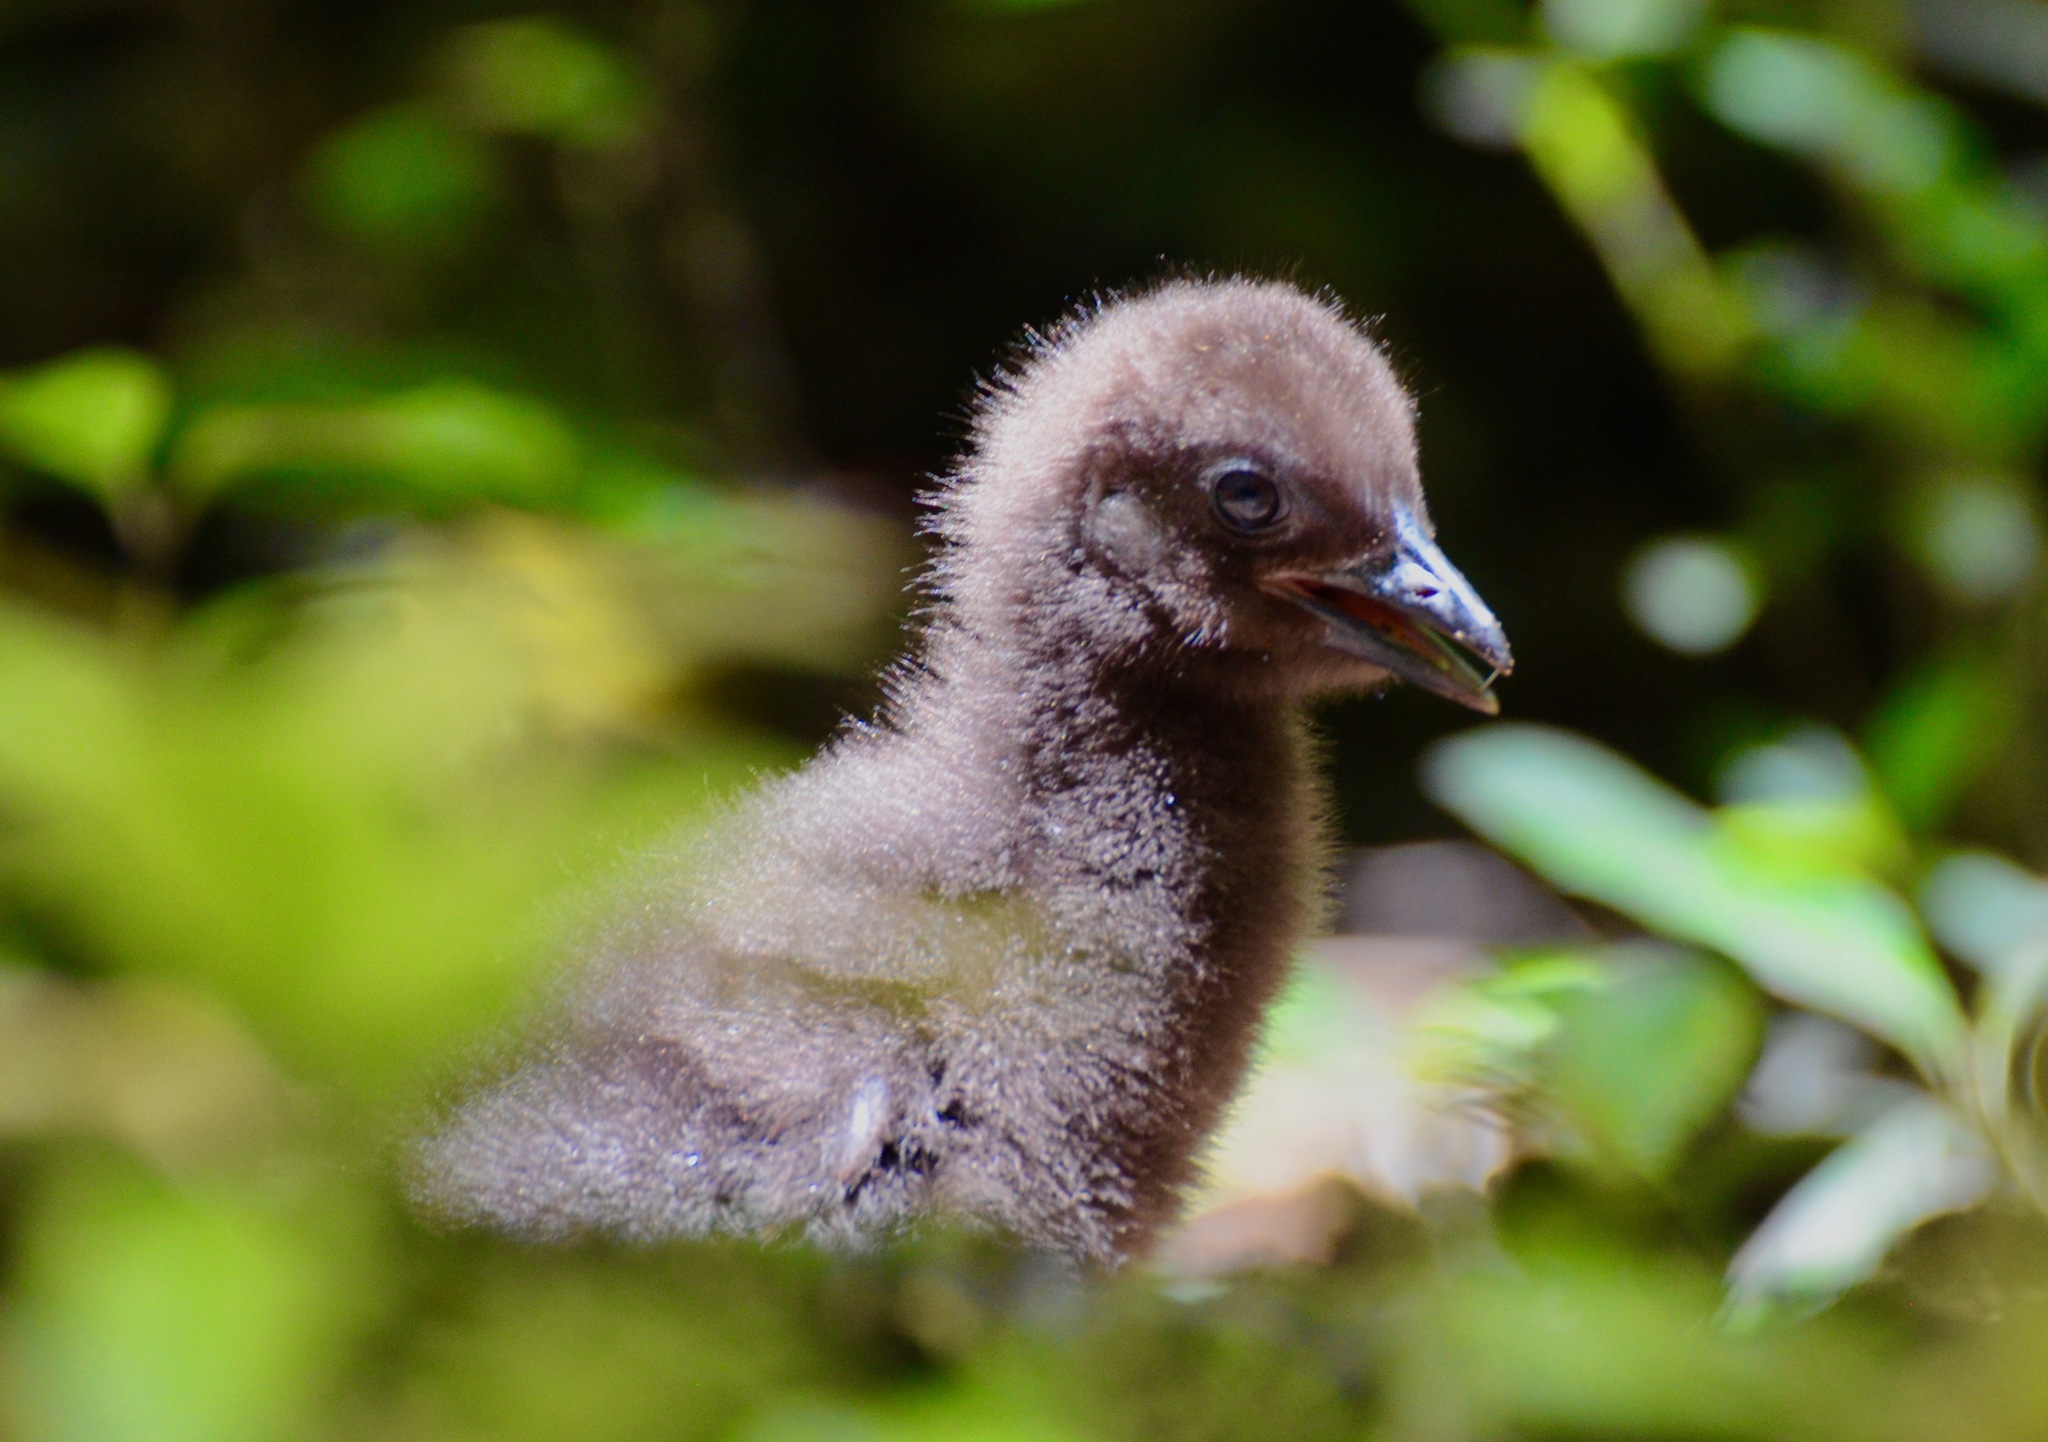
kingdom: Animalia
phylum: Chordata
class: Aves
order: Gruiformes
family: Rallidae
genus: Gallirallus
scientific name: Gallirallus australis
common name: Weka
